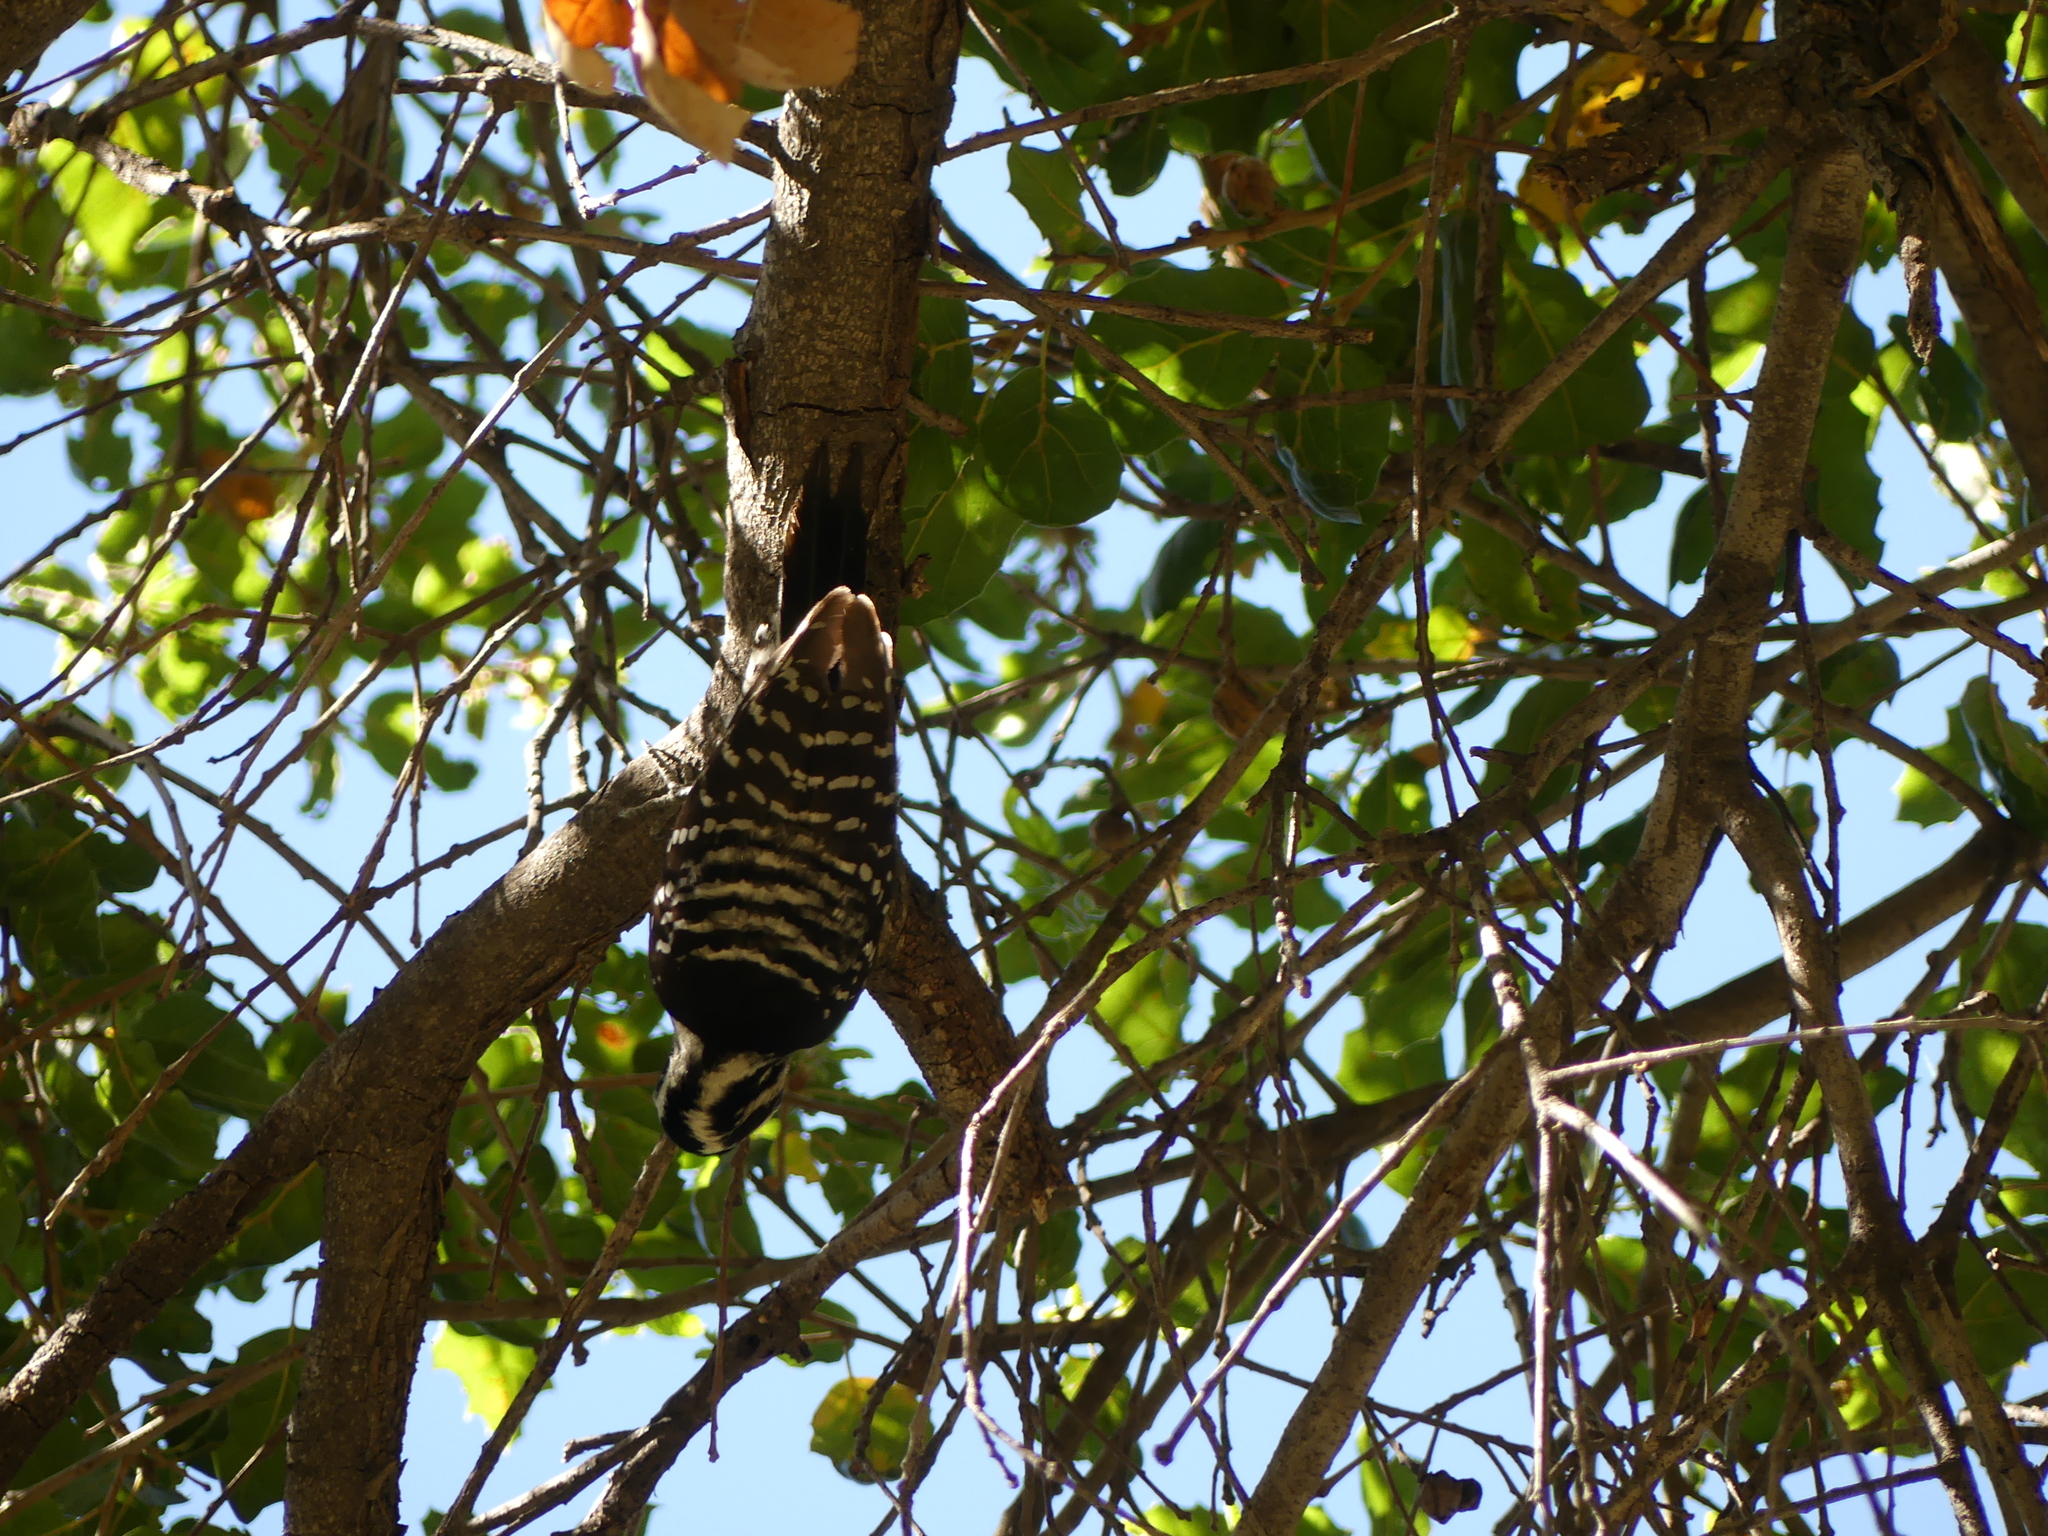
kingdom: Animalia
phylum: Chordata
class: Aves
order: Piciformes
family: Picidae
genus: Dryobates
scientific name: Dryobates nuttallii
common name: Nuttall's woodpecker
